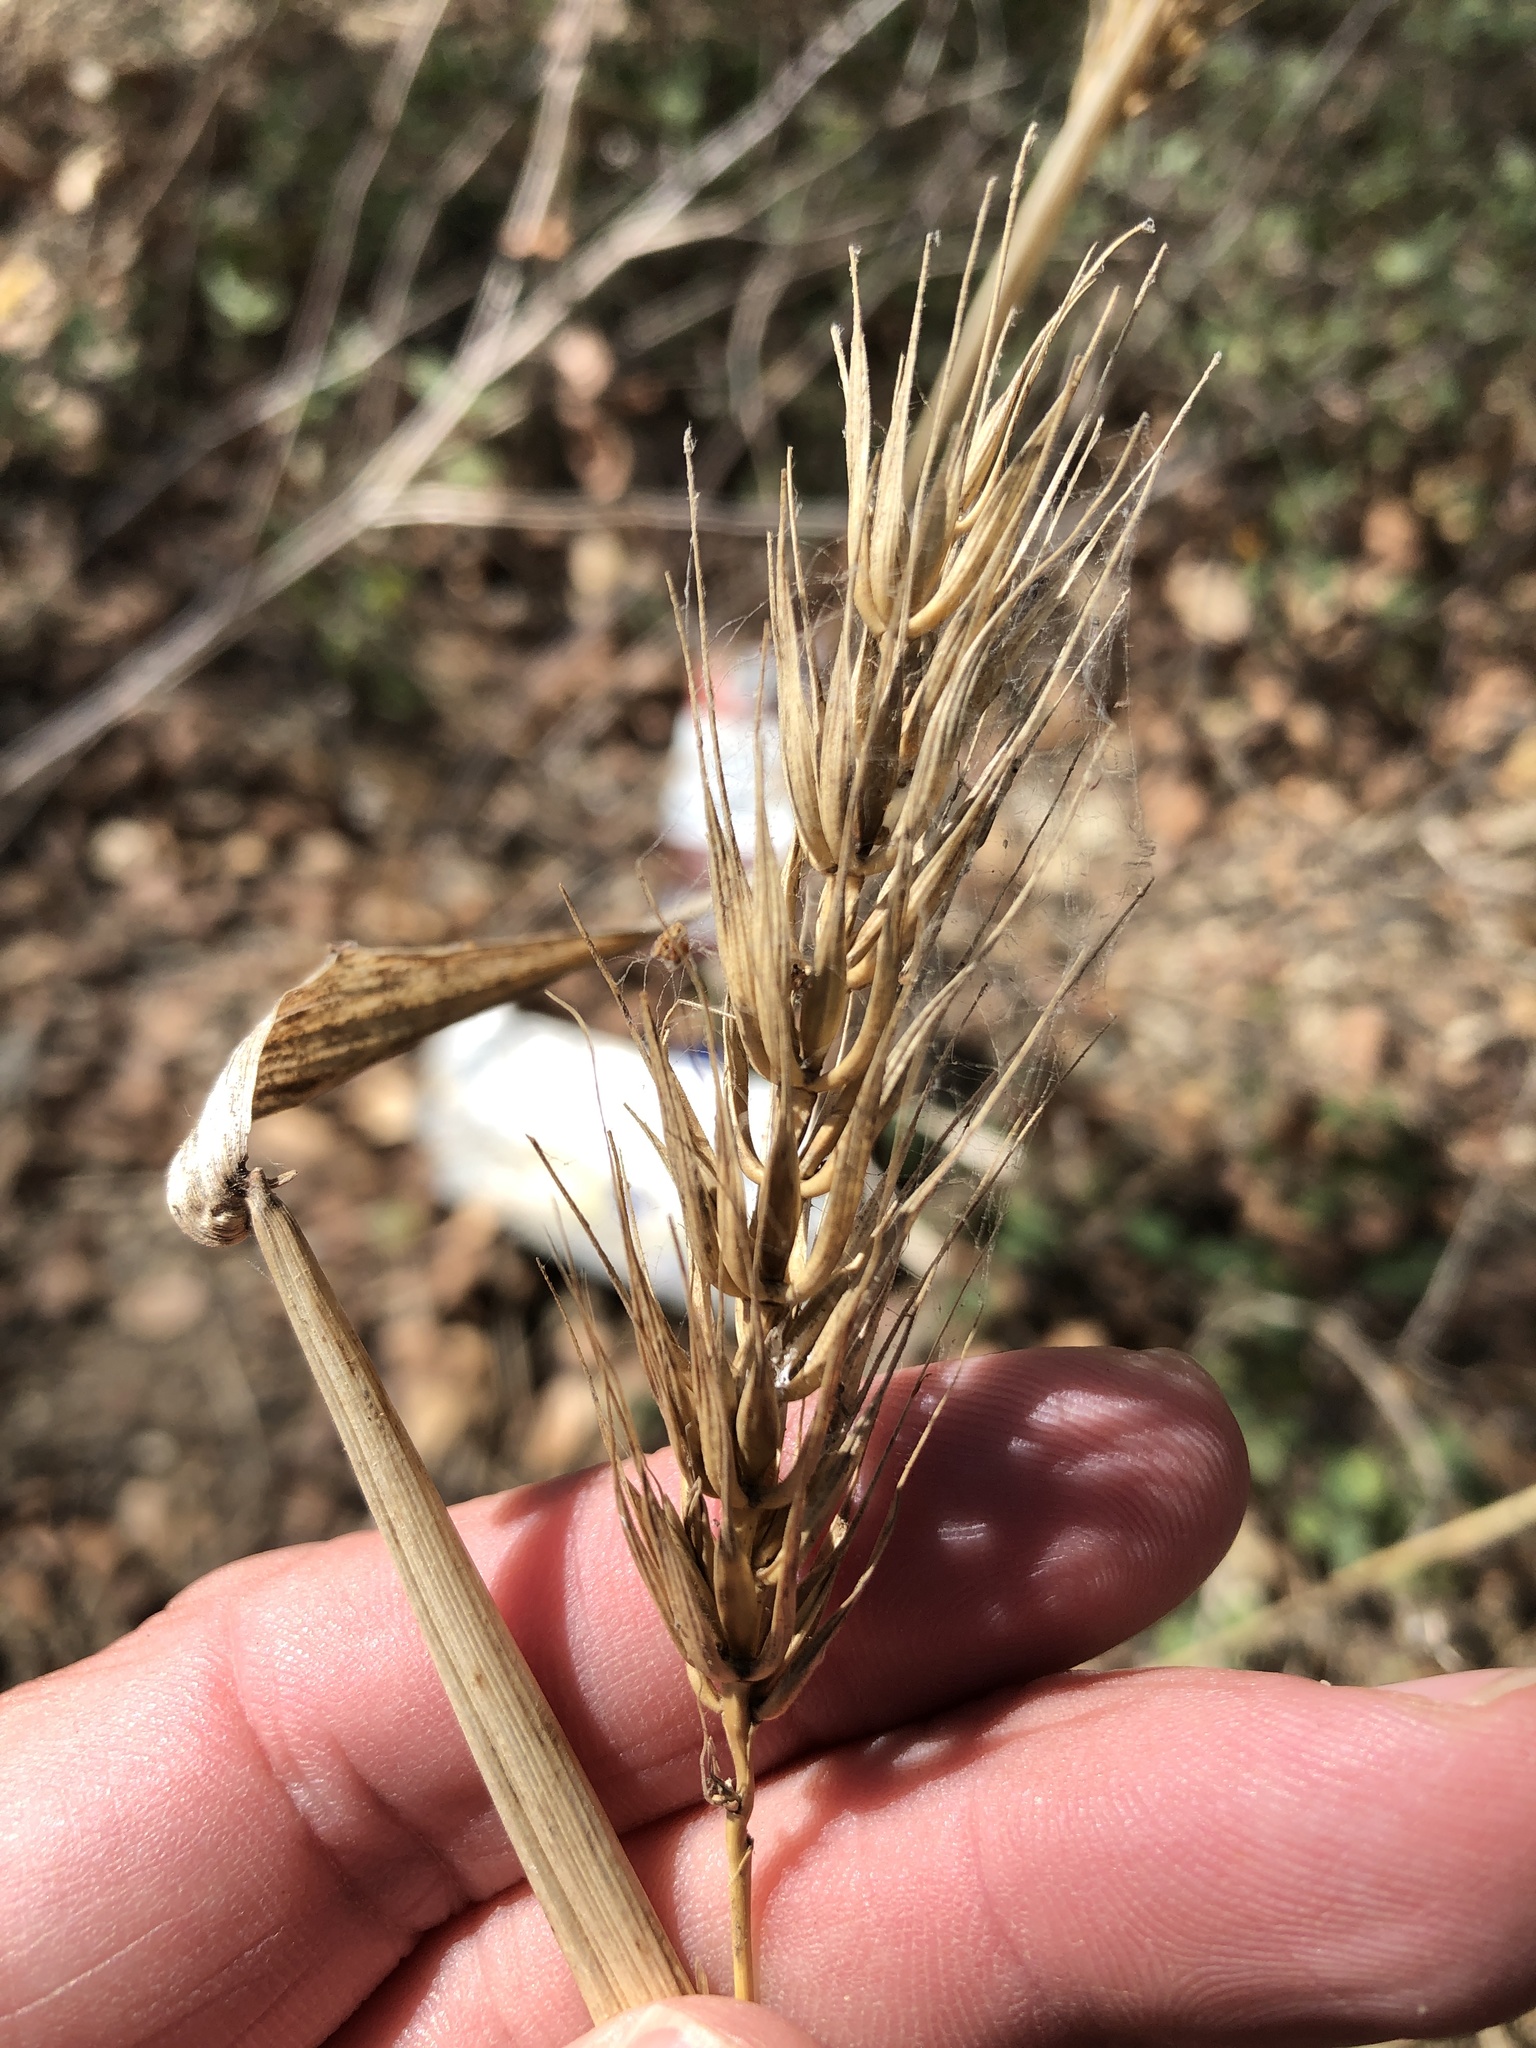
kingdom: Plantae
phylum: Tracheophyta
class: Liliopsida
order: Poales
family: Poaceae
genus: Elymus
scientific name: Elymus virginicus
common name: Common eastern wildrye
